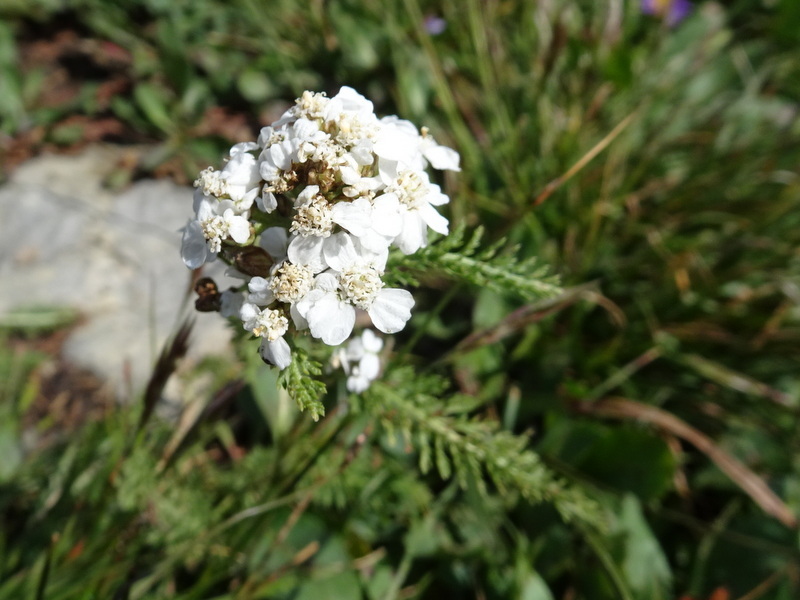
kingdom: Plantae
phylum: Tracheophyta
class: Magnoliopsida
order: Asterales
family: Asteraceae
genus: Achillea
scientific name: Achillea millefolium
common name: Yarrow
